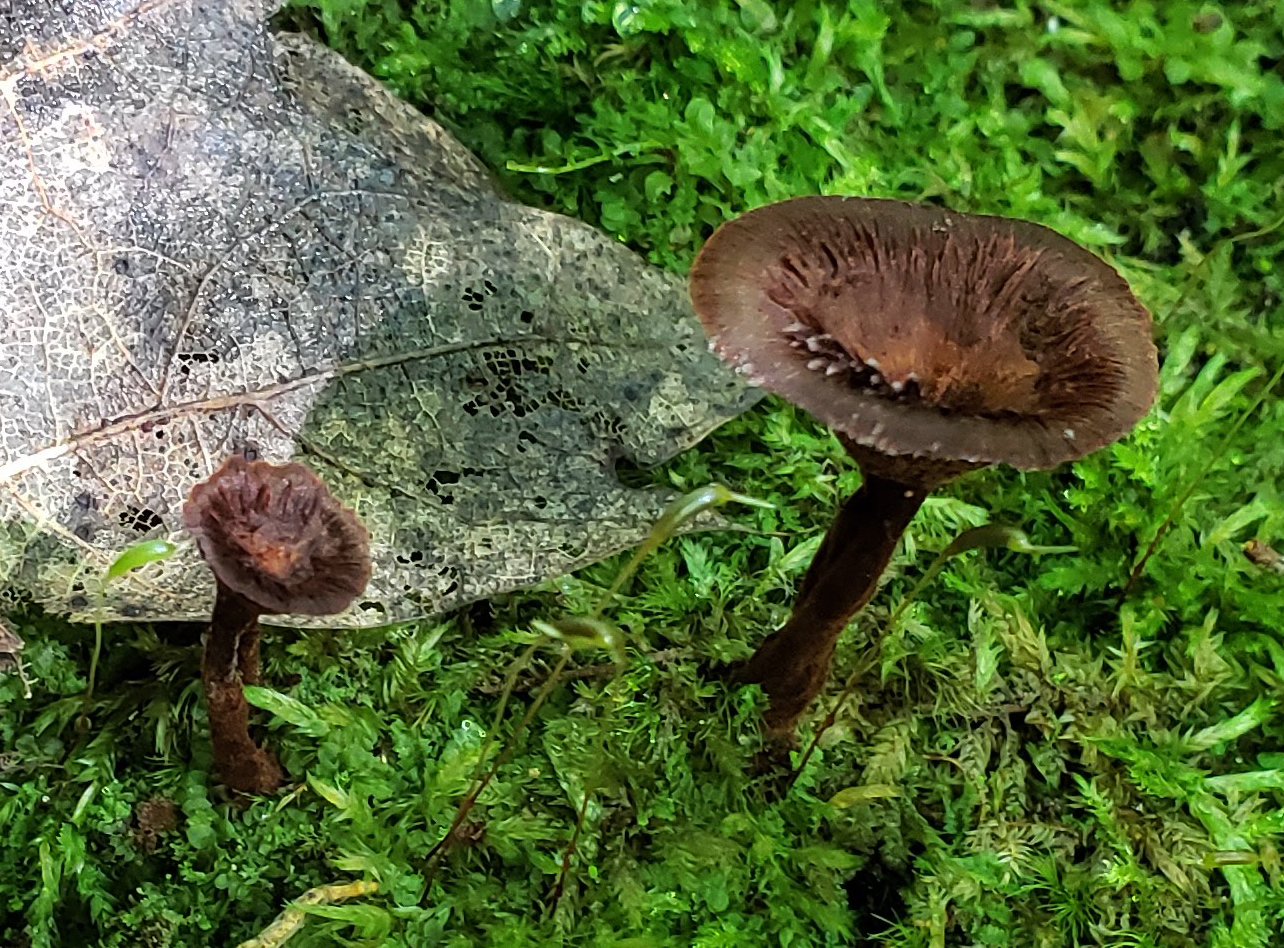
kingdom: Fungi
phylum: Basidiomycota
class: Agaricomycetes
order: Hymenochaetales
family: Hymenochaetaceae
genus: Coltricia
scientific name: Coltricia cinnamomea
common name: Shiny cinnamon polypore
